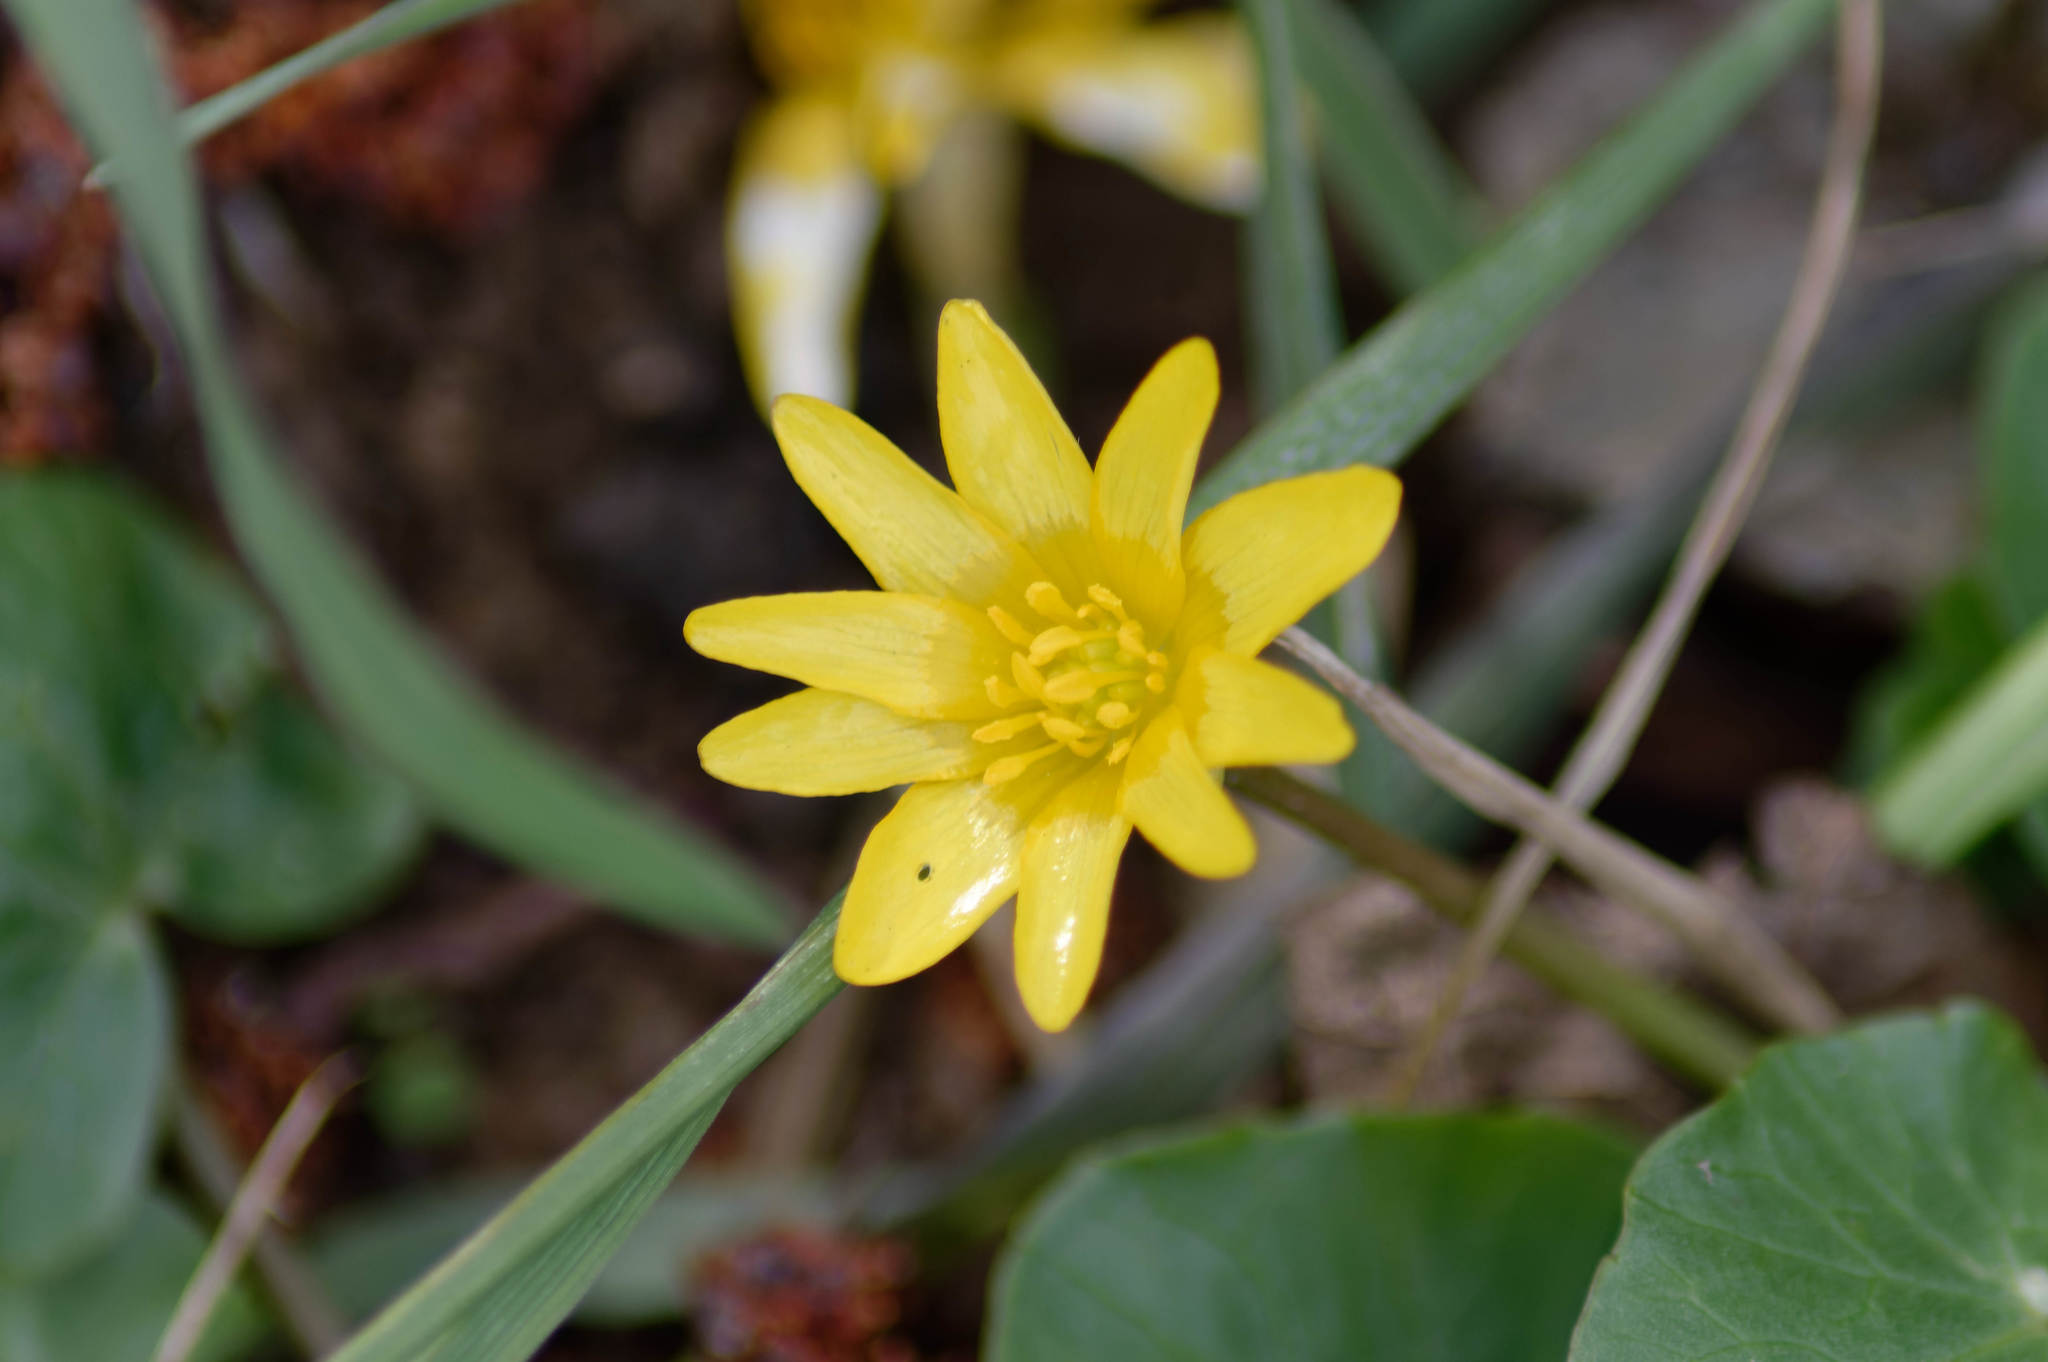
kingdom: Plantae
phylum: Tracheophyta
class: Magnoliopsida
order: Ranunculales
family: Ranunculaceae
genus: Ficaria
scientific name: Ficaria verna
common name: Lesser celandine
